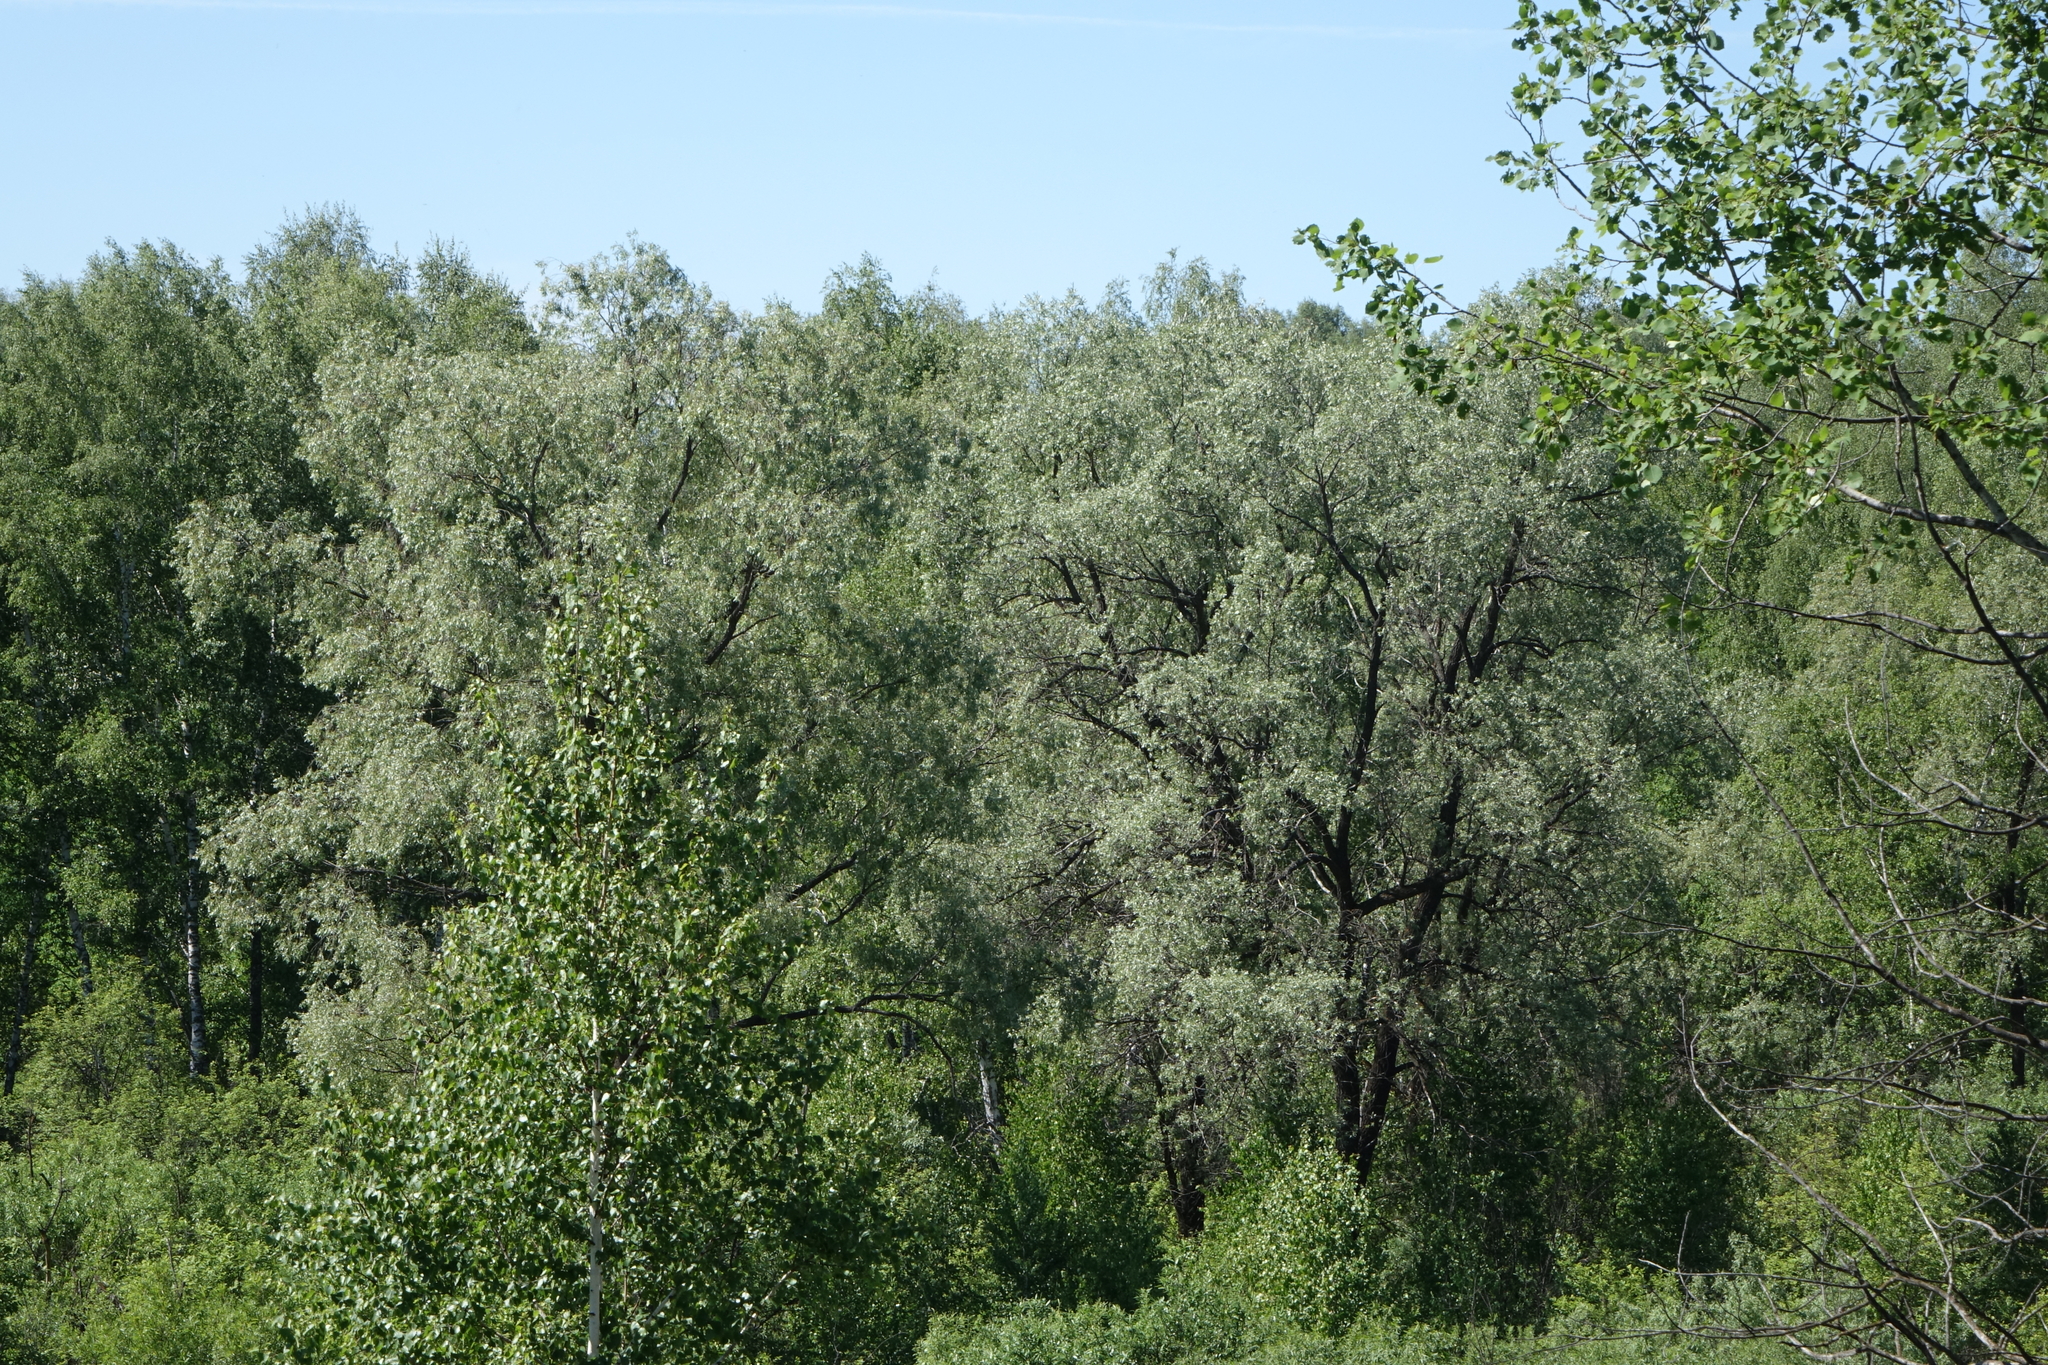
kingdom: Plantae
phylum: Tracheophyta
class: Magnoliopsida
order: Malpighiales
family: Salicaceae
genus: Salix
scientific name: Salix alba
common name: White willow
